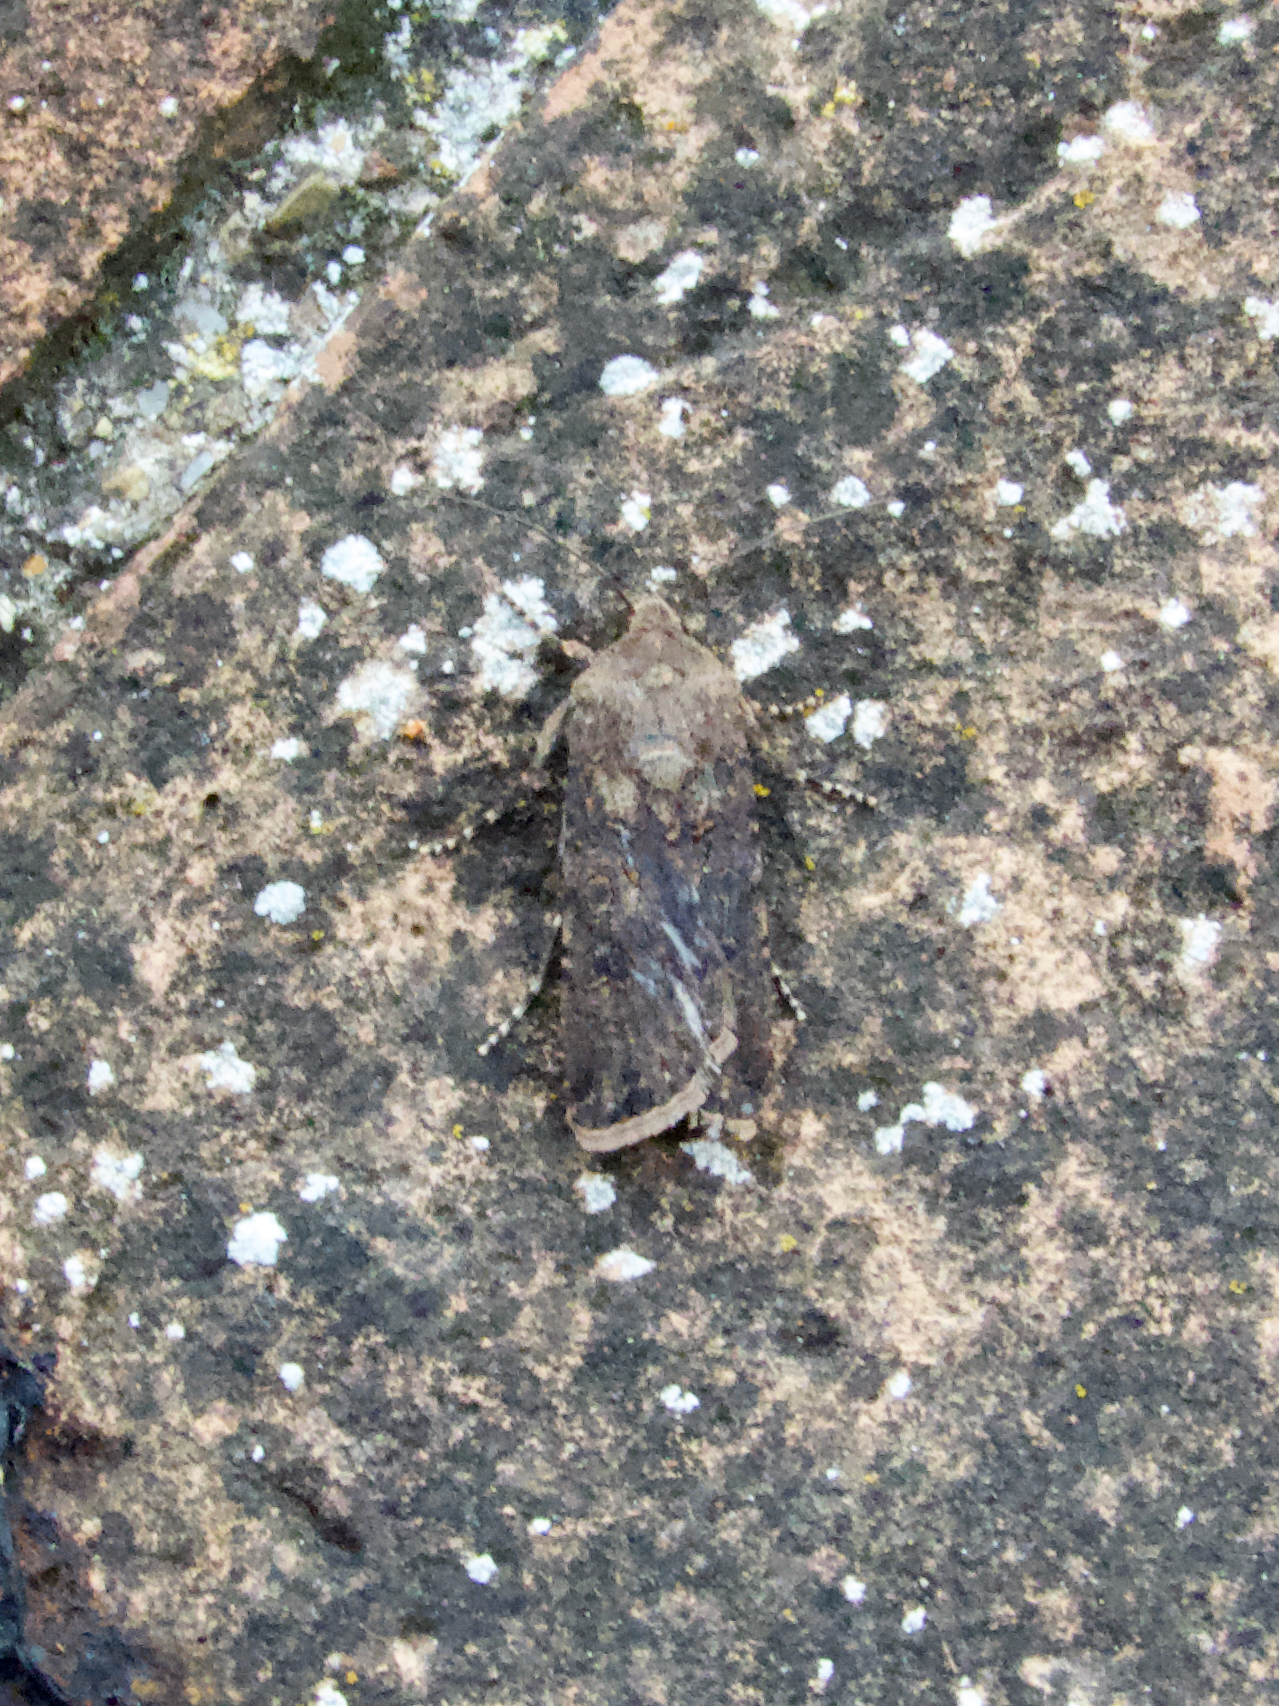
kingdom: Animalia
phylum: Arthropoda
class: Insecta
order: Lepidoptera
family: Noctuidae
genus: Agrotis
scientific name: Agrotis segetum
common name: Turnip moth
